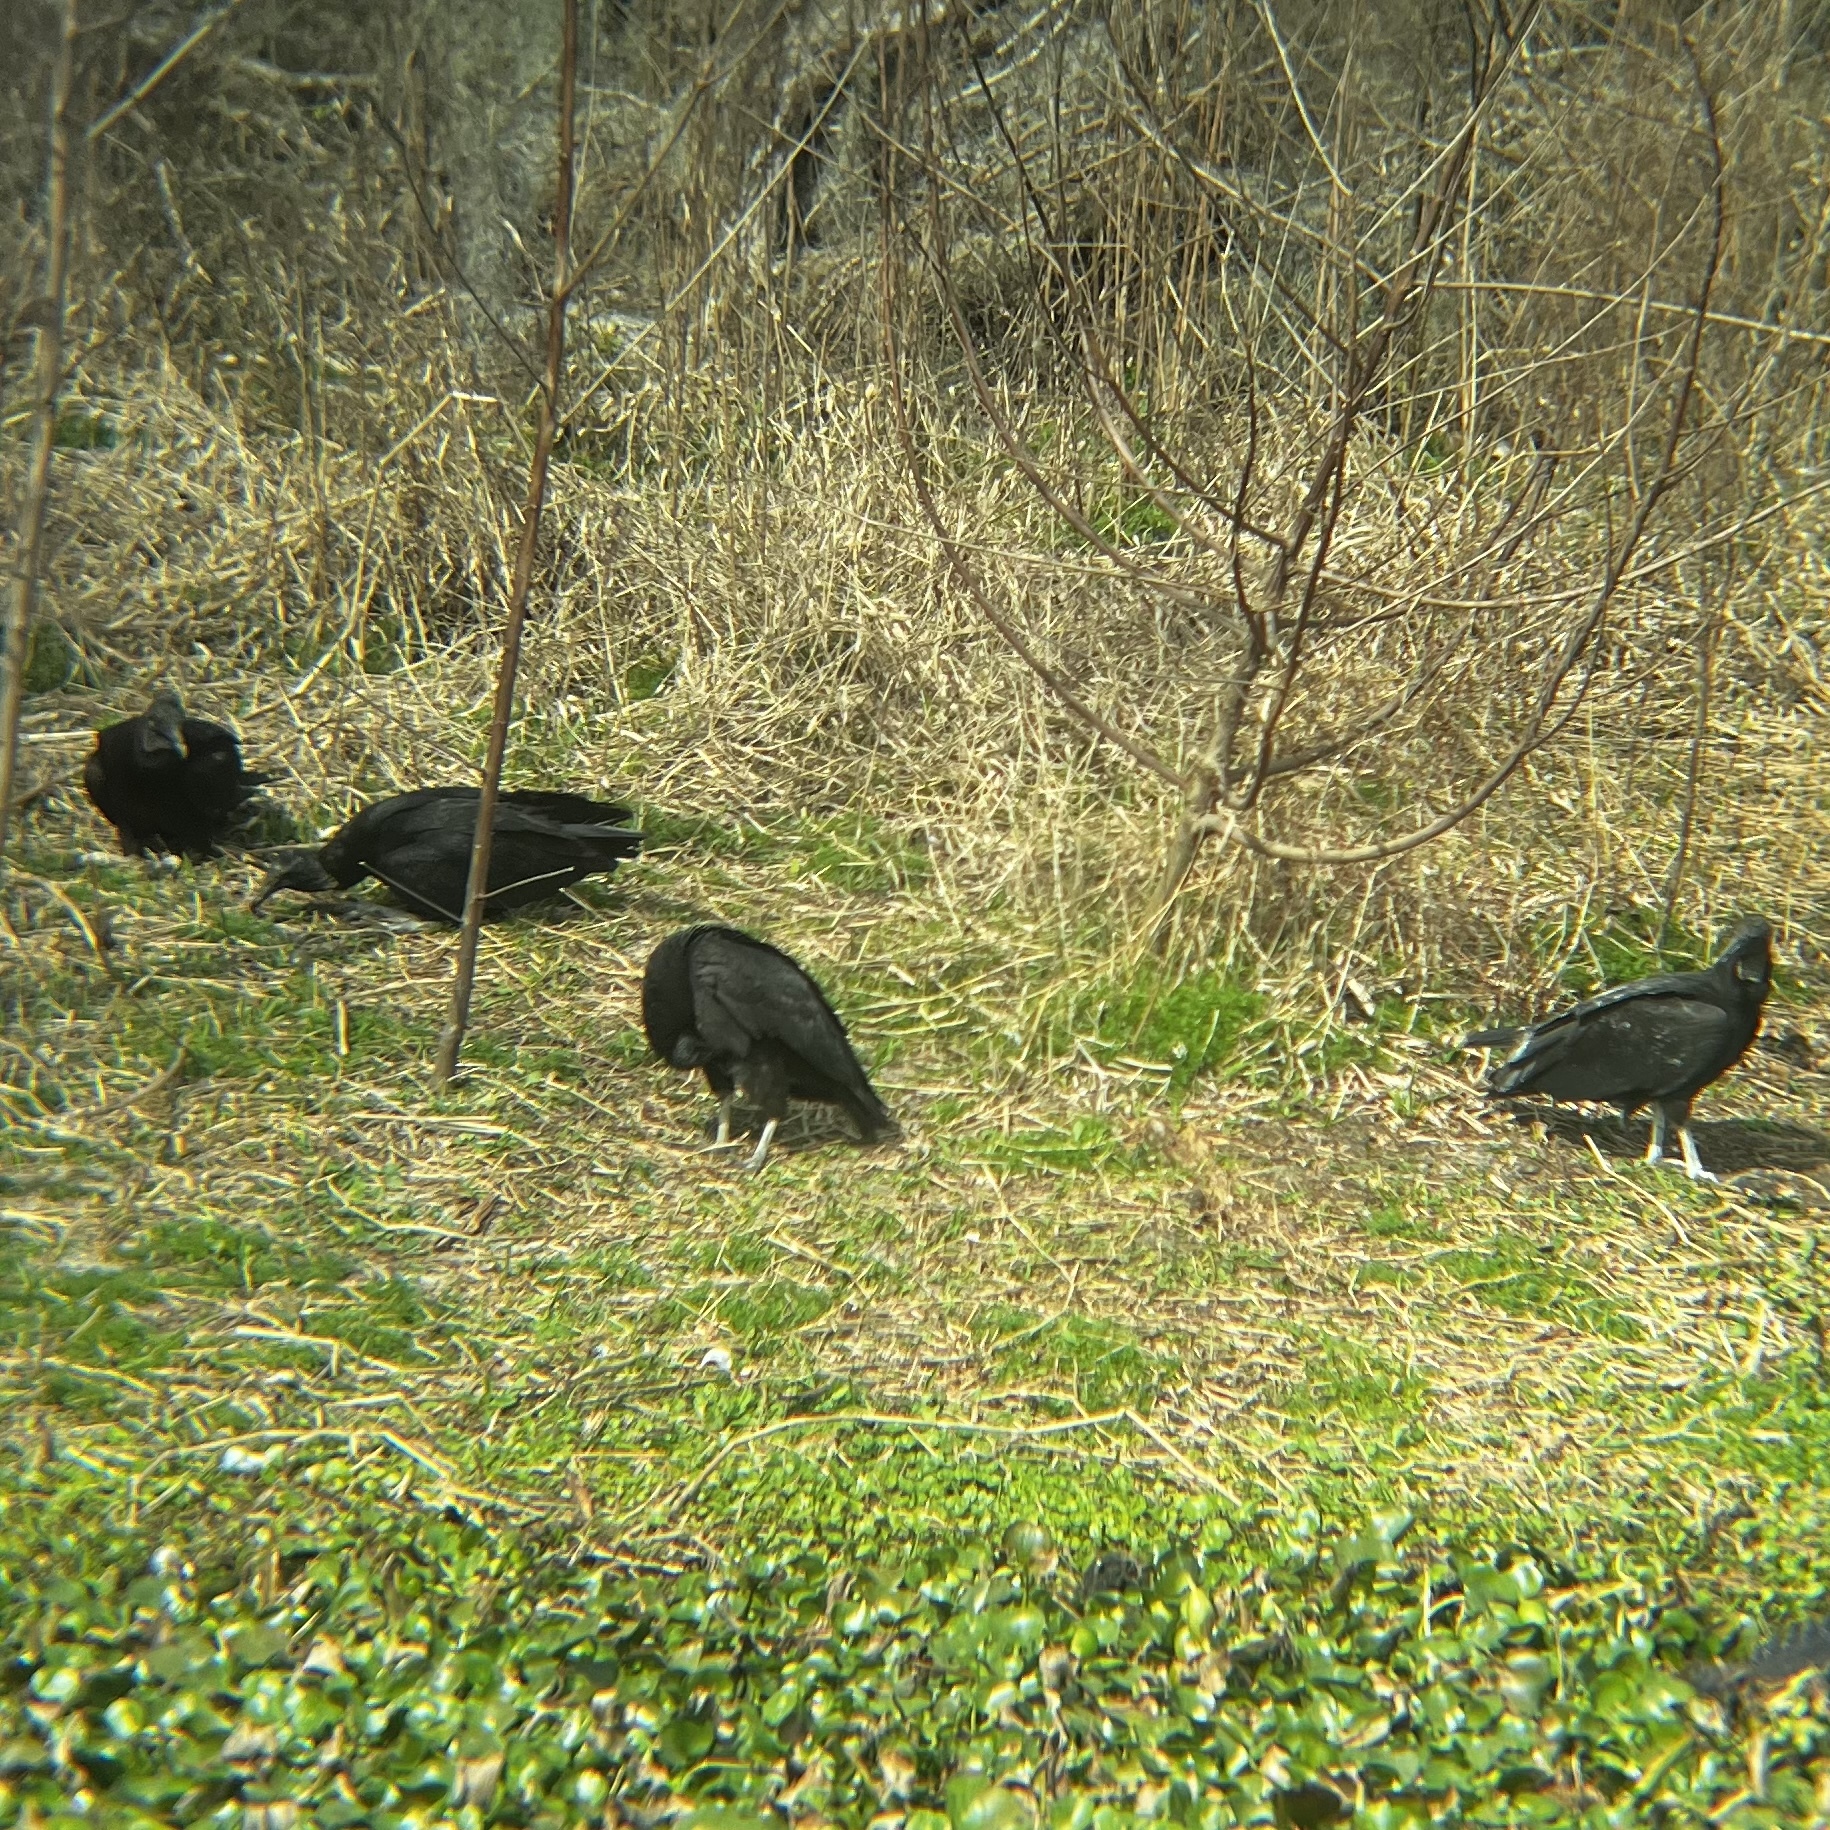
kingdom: Animalia
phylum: Chordata
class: Aves
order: Accipitriformes
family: Cathartidae
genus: Coragyps
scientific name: Coragyps atratus
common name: Black vulture
